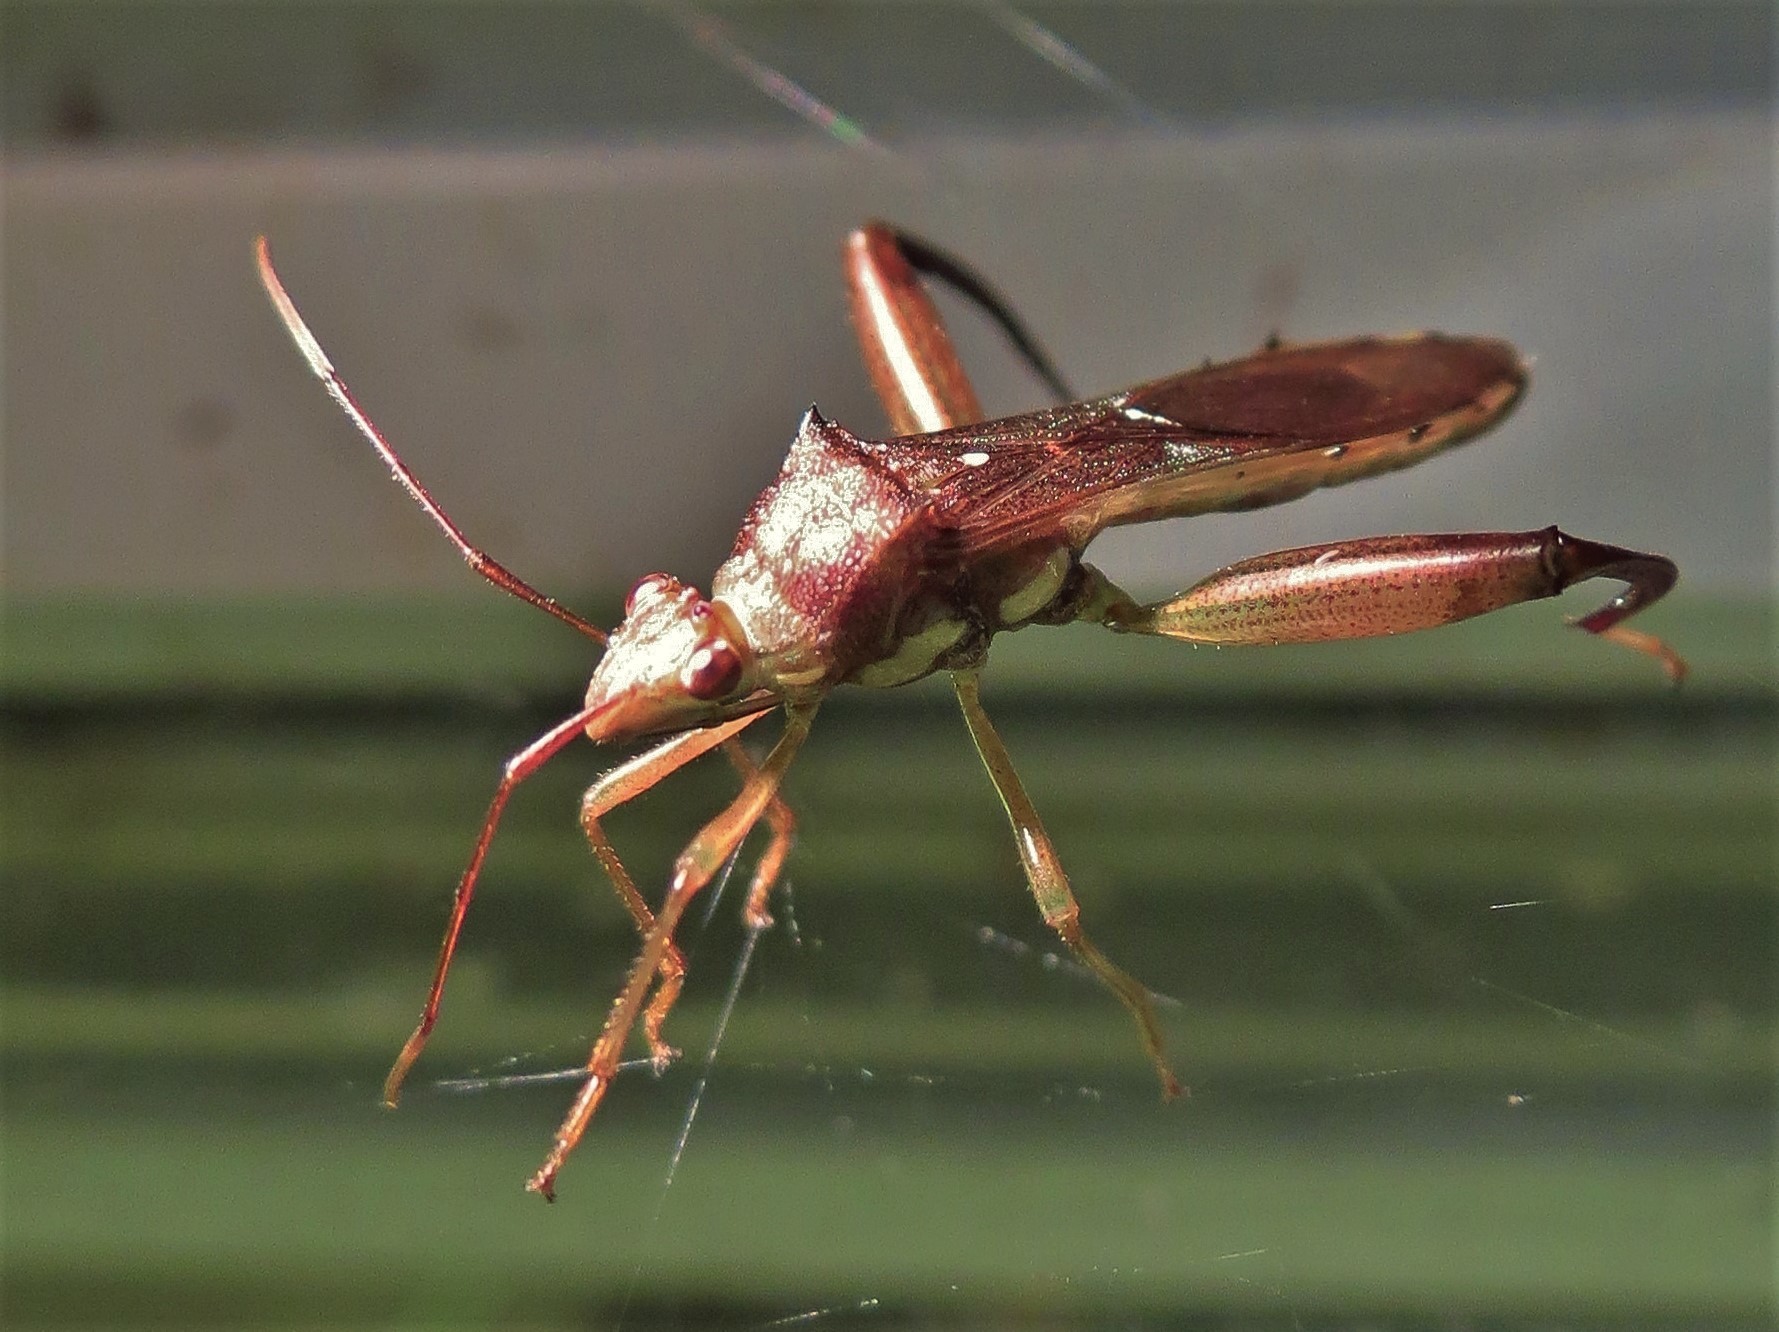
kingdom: Animalia
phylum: Arthropoda
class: Insecta
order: Hemiptera
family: Alydidae
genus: Hyalymenus
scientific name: Hyalymenus tarsatus
